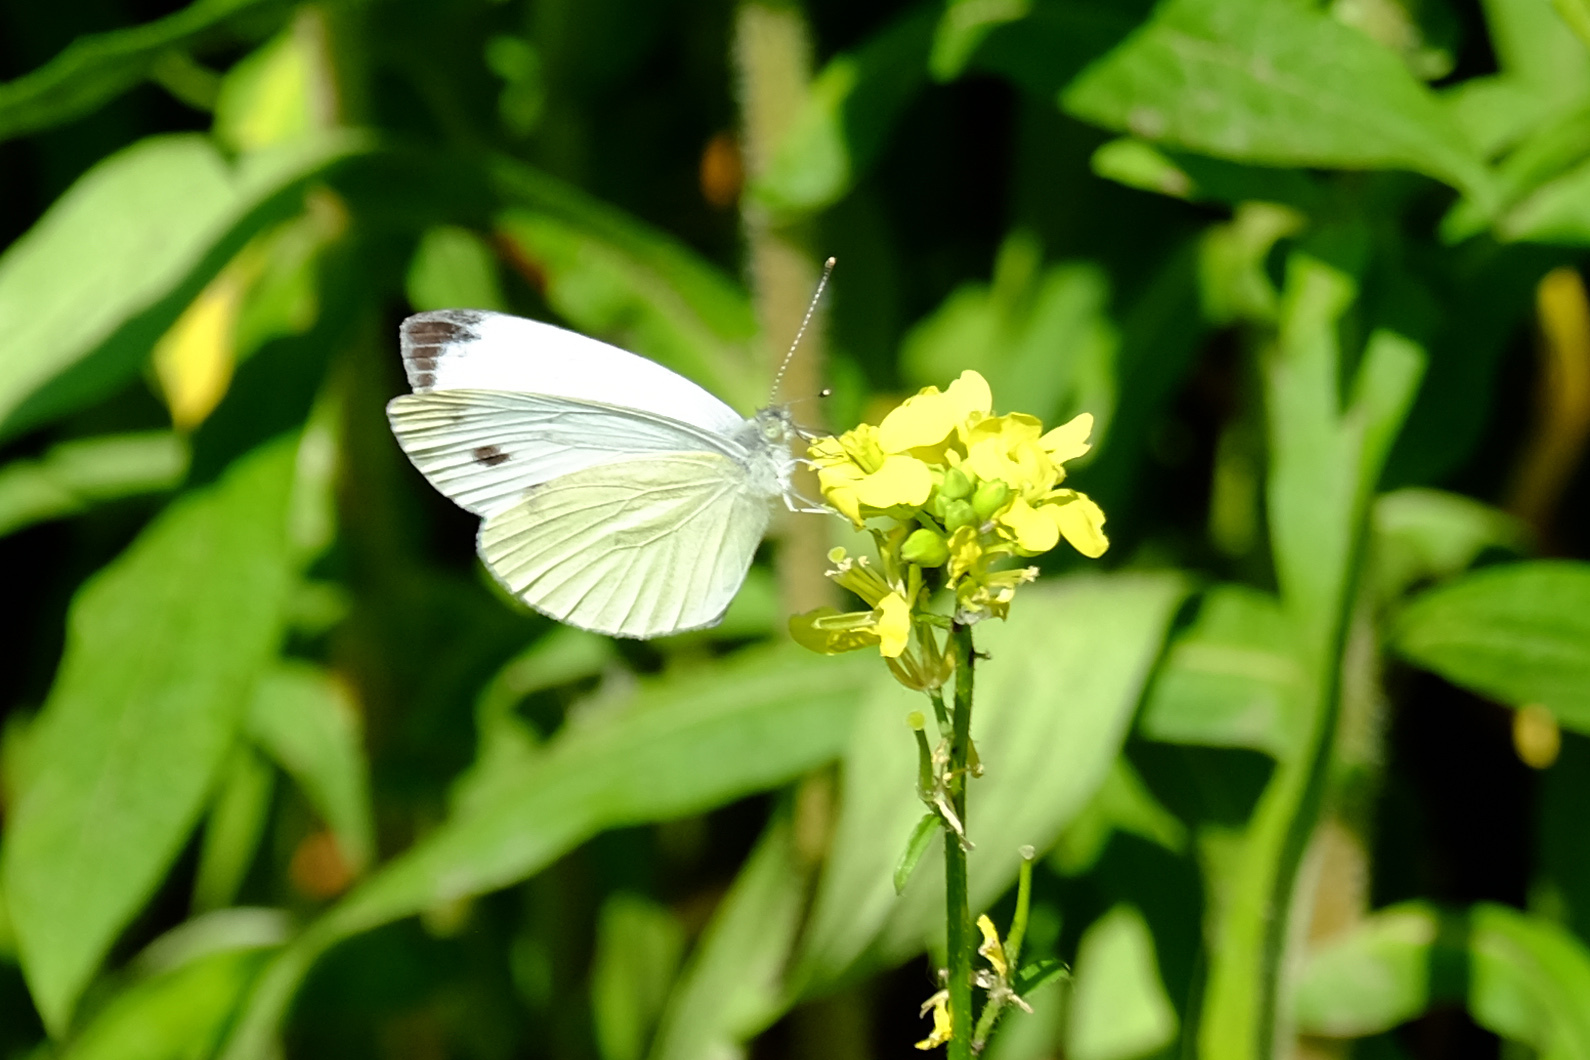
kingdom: Animalia
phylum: Arthropoda
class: Insecta
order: Lepidoptera
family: Pieridae
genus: Pieris
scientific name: Pieris napi
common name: Green-veined white
